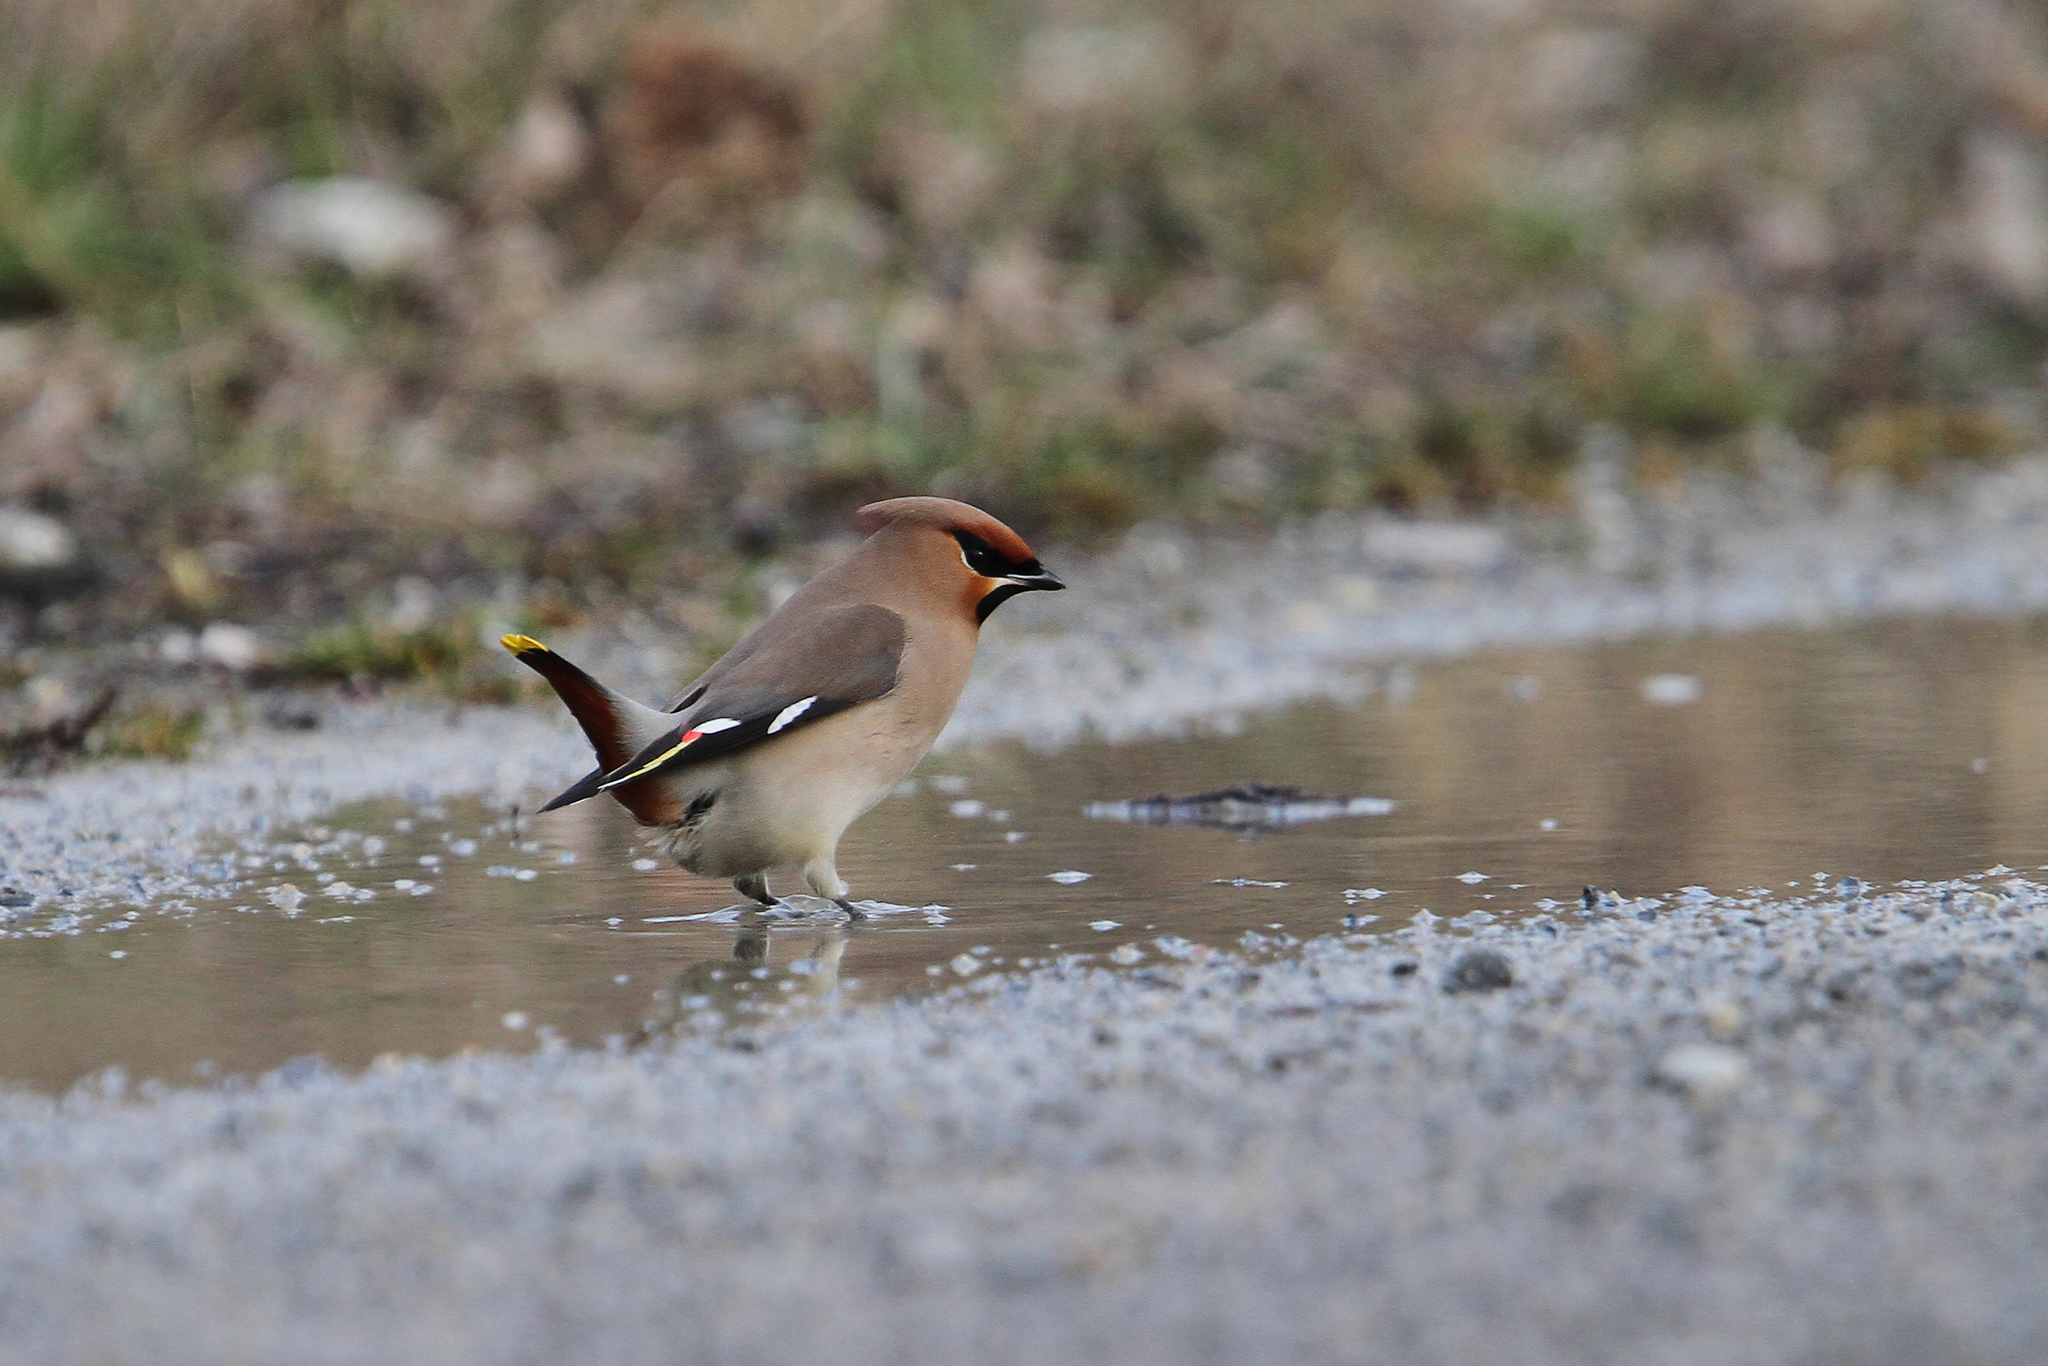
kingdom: Animalia
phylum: Chordata
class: Aves
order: Passeriformes
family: Bombycillidae
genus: Bombycilla
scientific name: Bombycilla garrulus
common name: Bohemian waxwing
